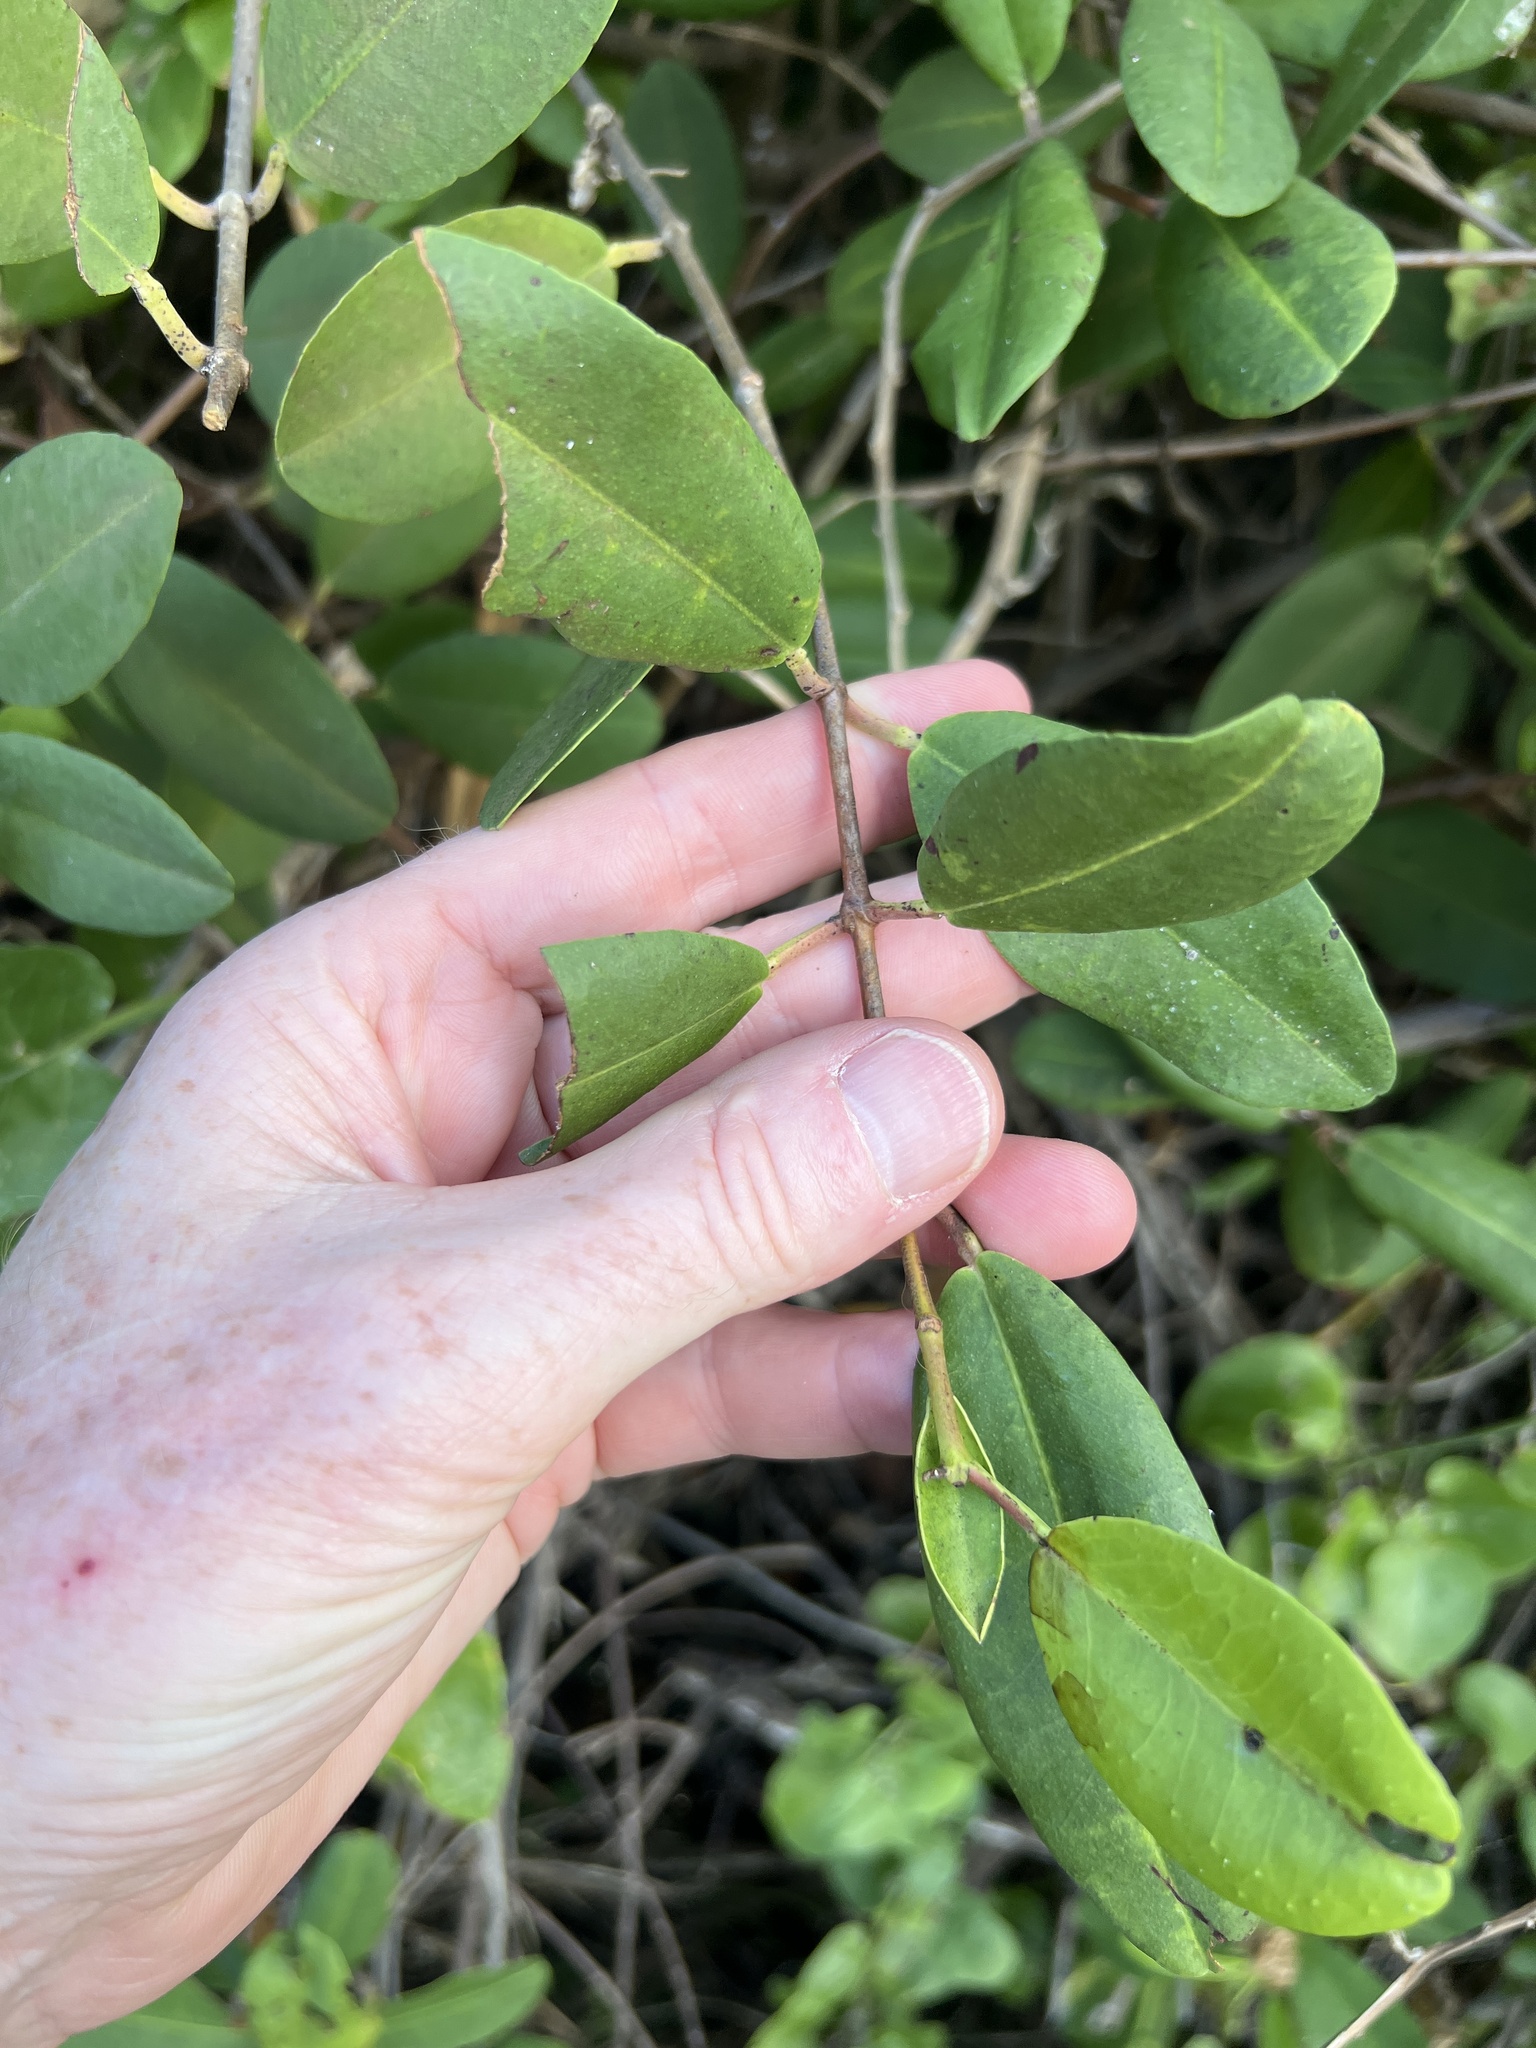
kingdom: Plantae
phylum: Tracheophyta
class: Magnoliopsida
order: Myrtales
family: Combretaceae
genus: Laguncularia
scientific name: Laguncularia racemosa
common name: White mangrove
